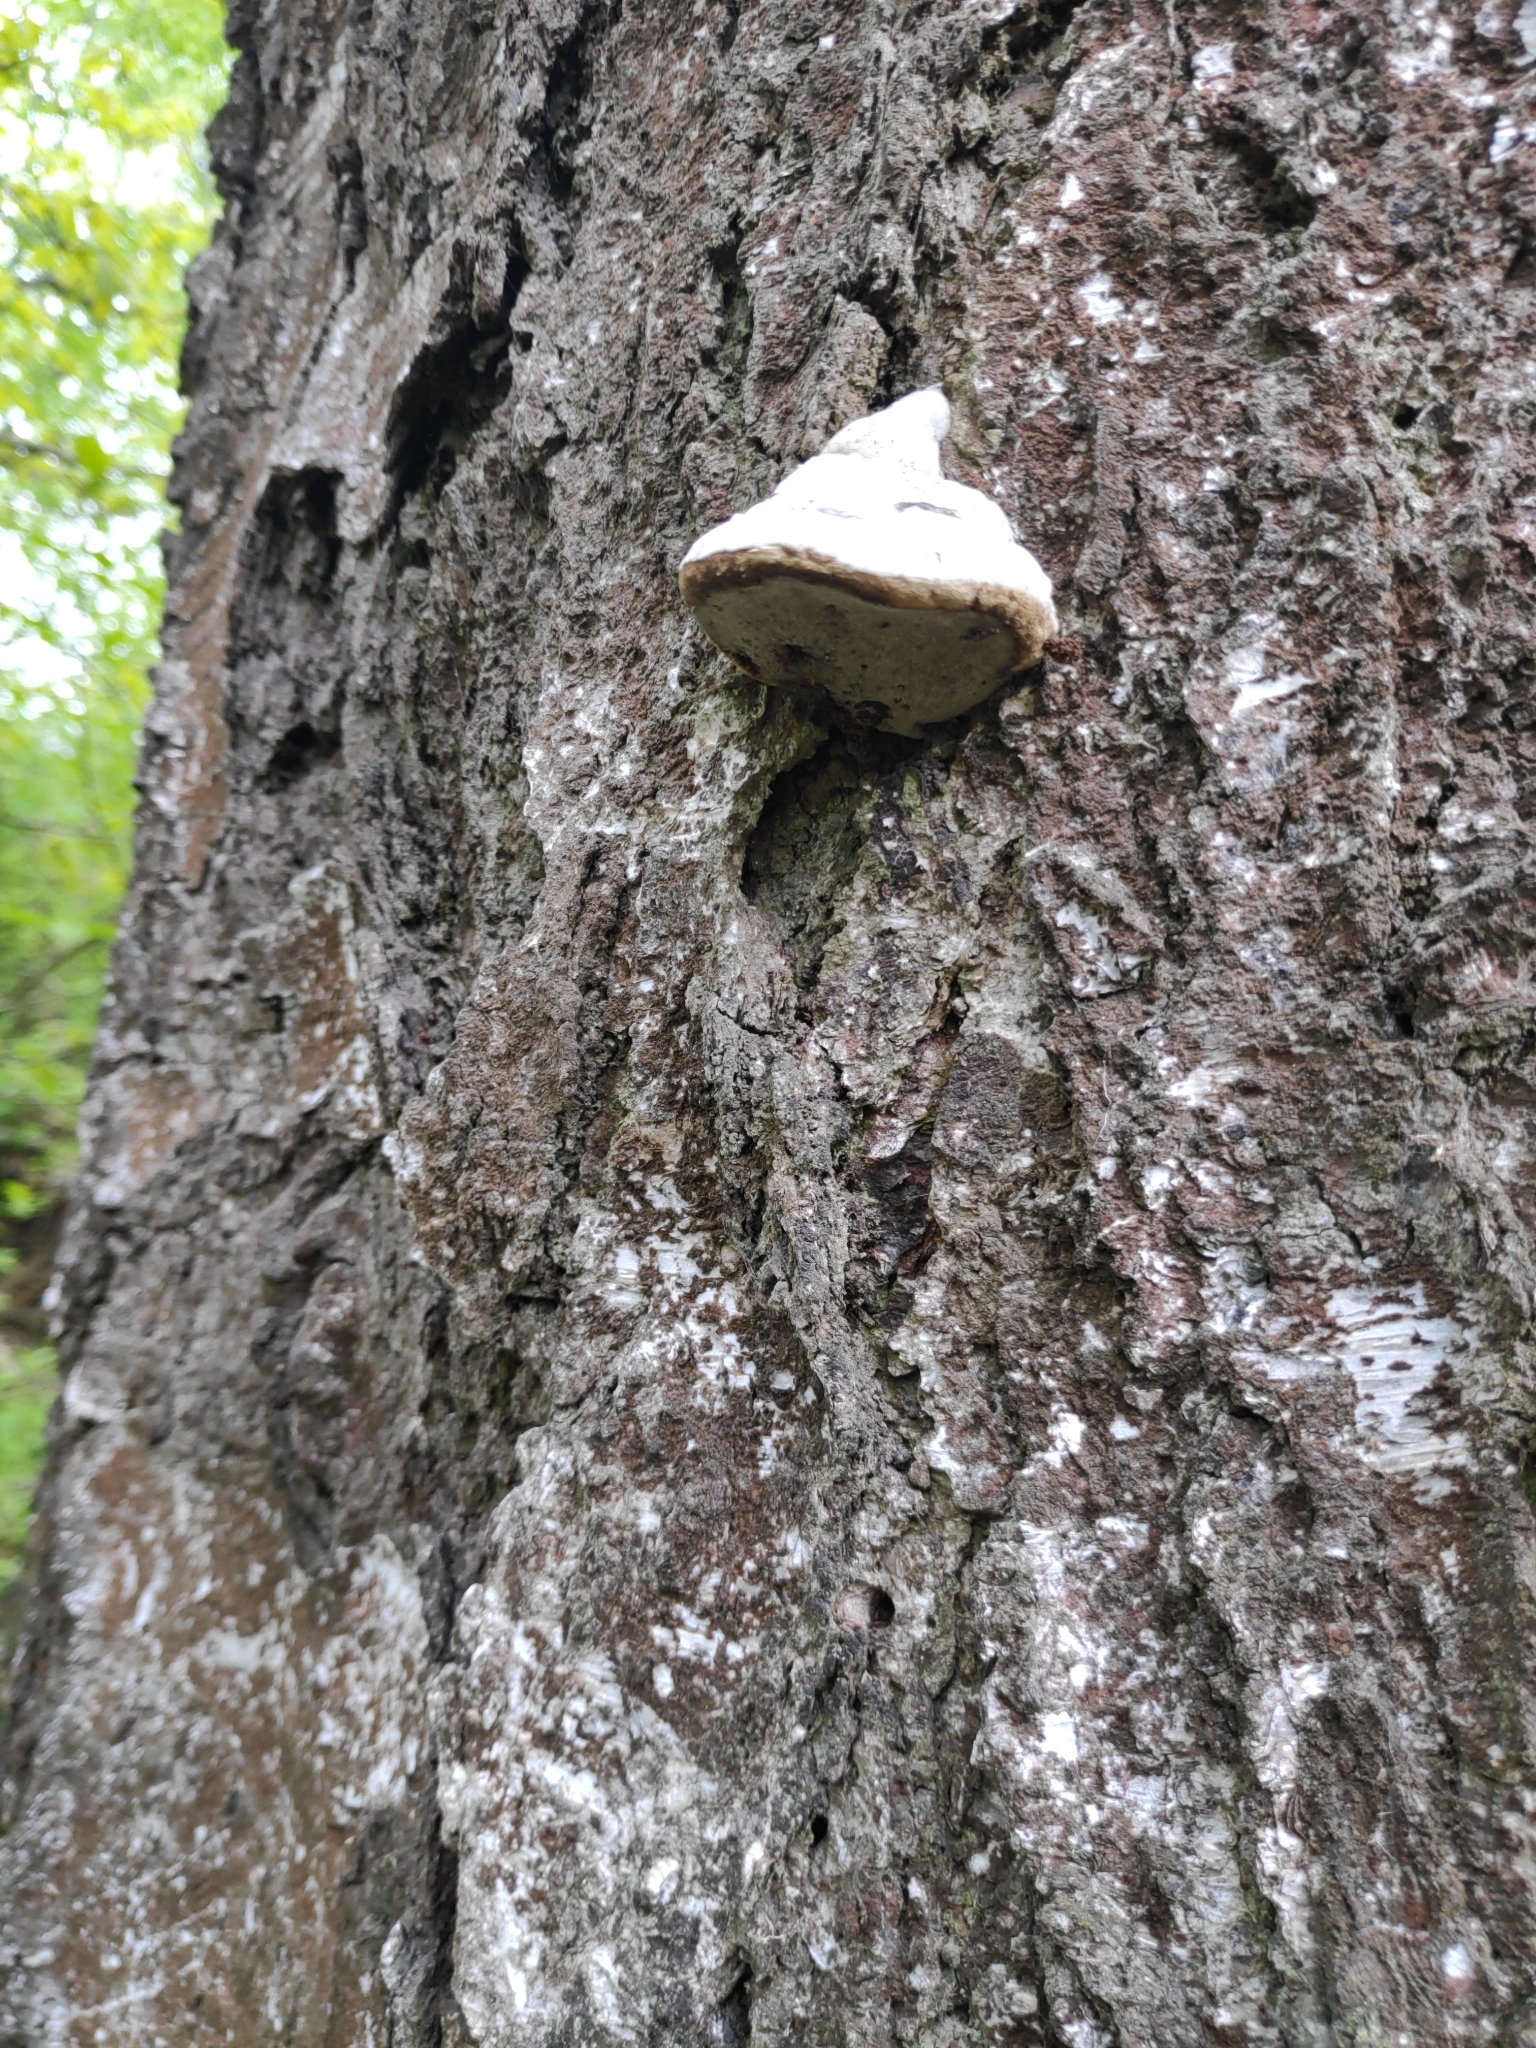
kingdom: Fungi
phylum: Basidiomycota
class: Agaricomycetes
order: Polyporales
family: Polyporaceae
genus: Fomes
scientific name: Fomes fomentarius
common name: Hoof fungus
